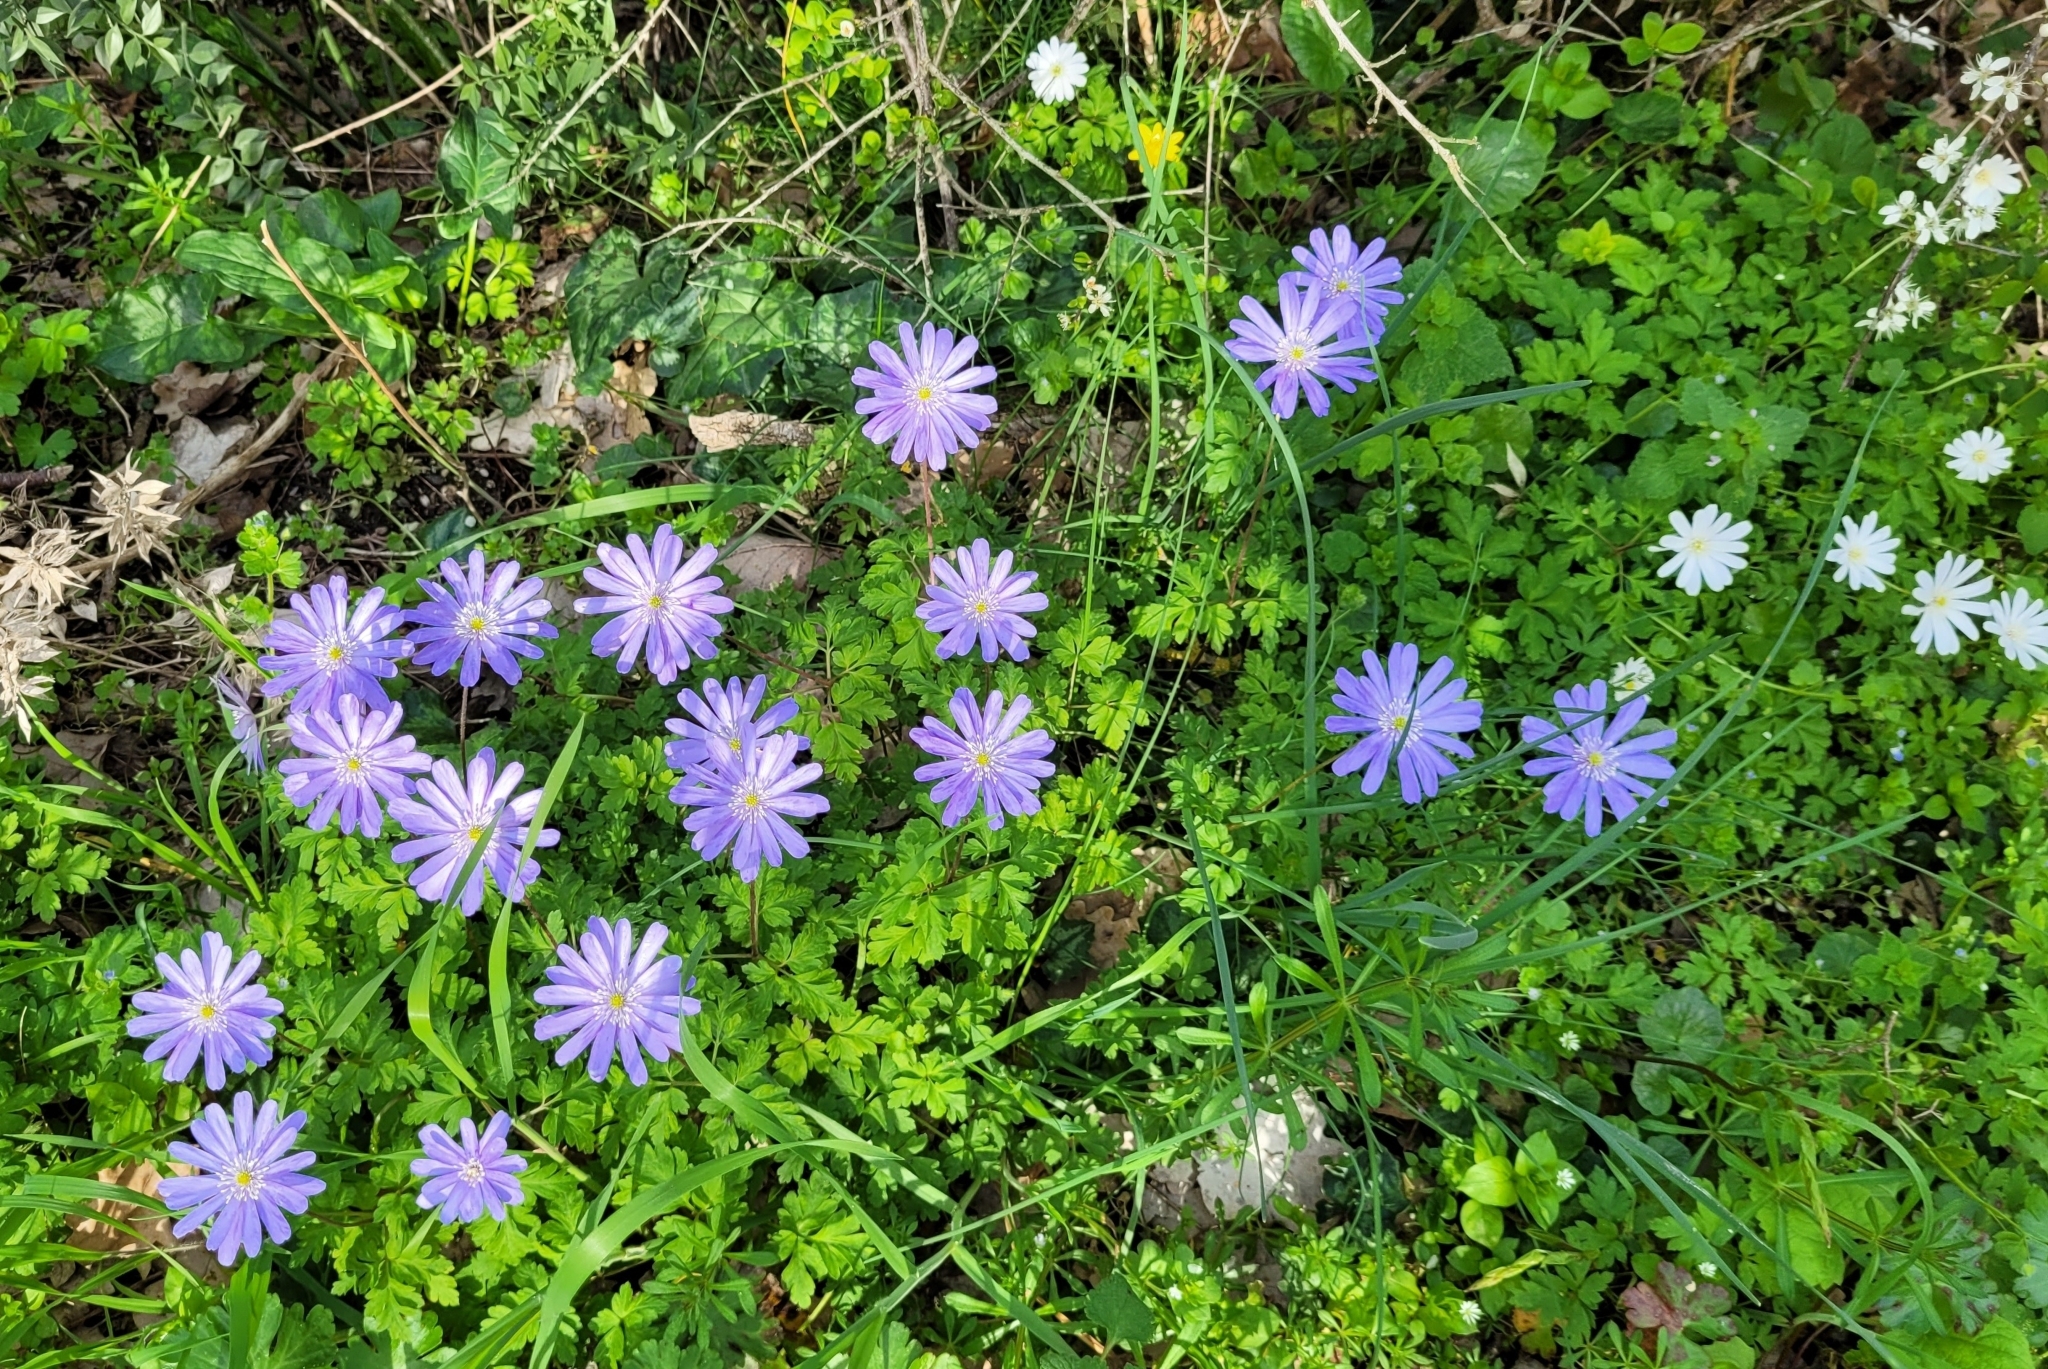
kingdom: Plantae
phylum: Tracheophyta
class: Magnoliopsida
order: Ranunculales
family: Ranunculaceae
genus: Anemone
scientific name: Anemone apennina
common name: Blue anemone
